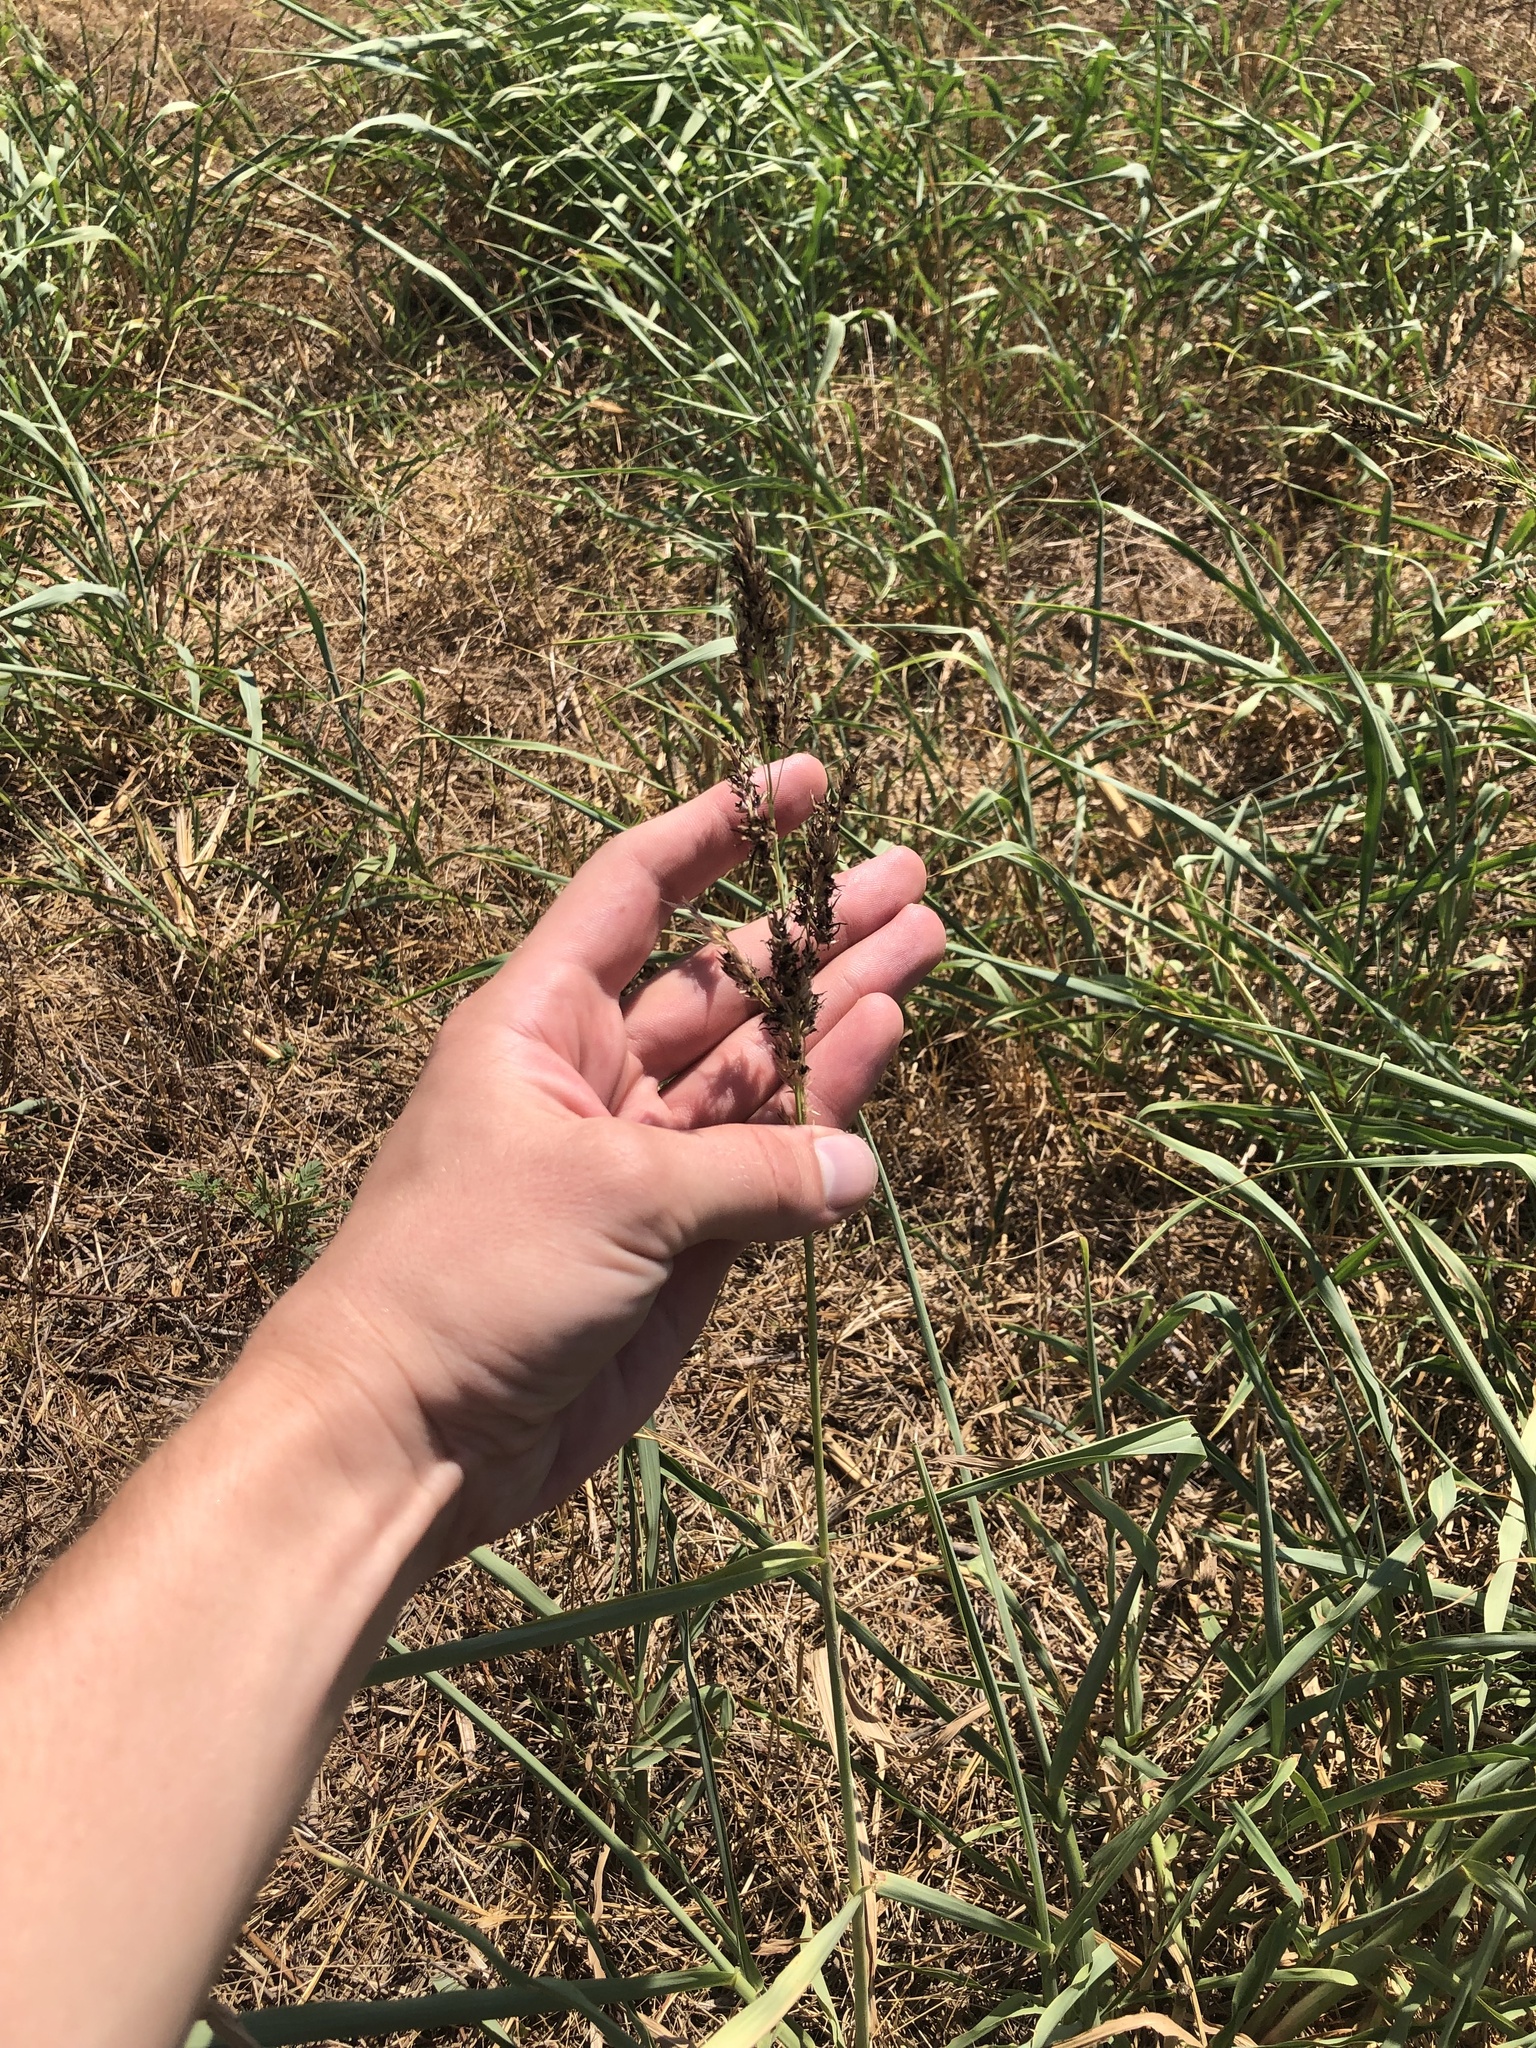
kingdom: Plantae
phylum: Tracheophyta
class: Liliopsida
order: Poales
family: Poaceae
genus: Sorghum
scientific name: Sorghum halepense
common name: Johnson-grass
